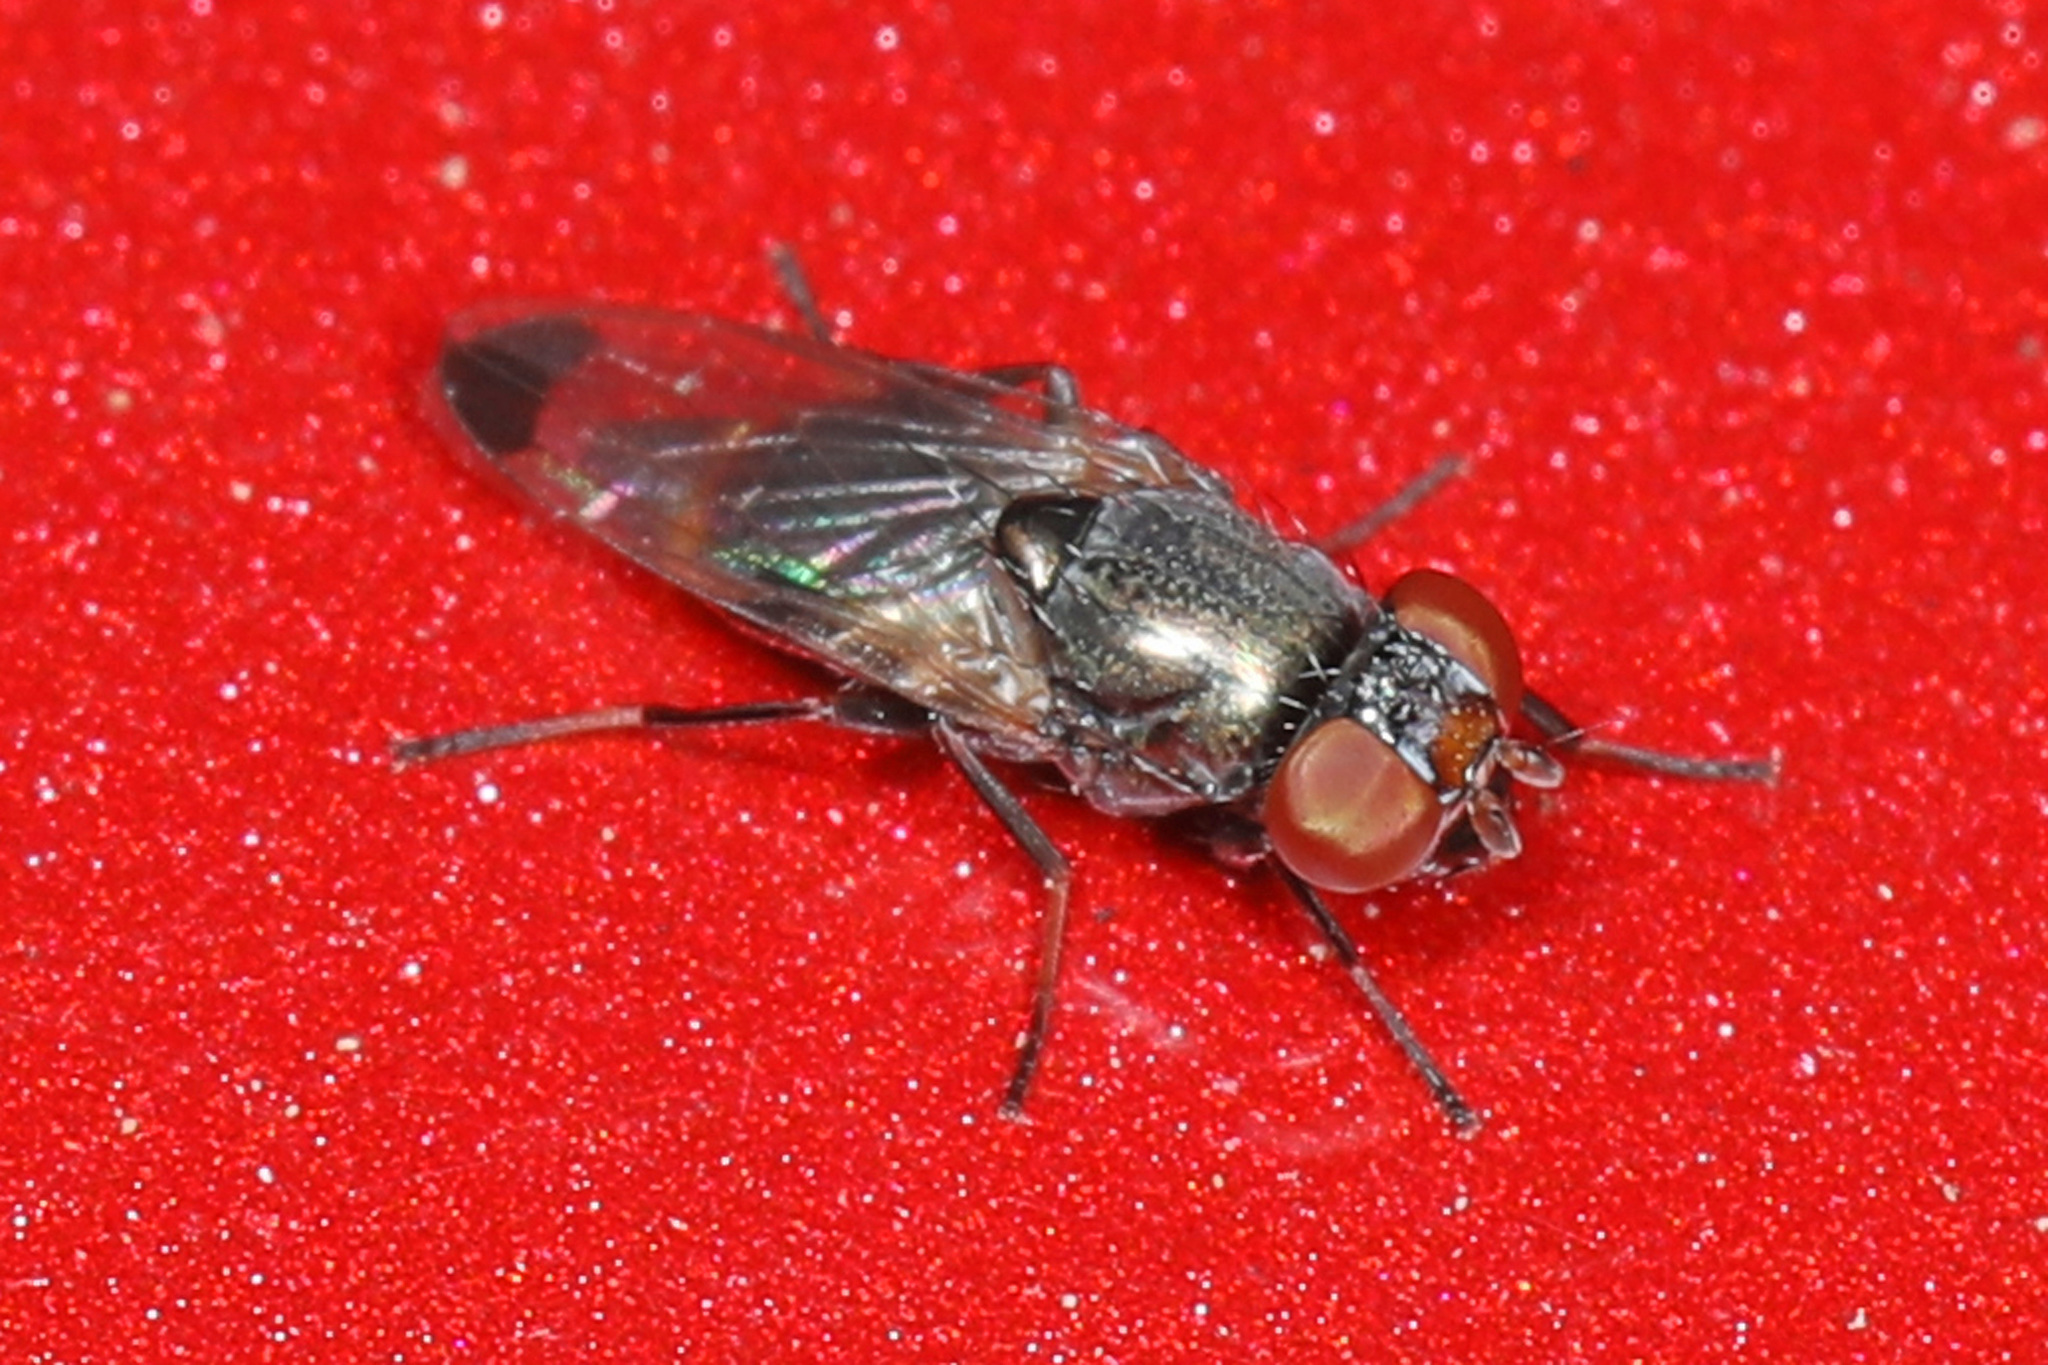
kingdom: Animalia
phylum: Arthropoda
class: Insecta
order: Diptera
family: Ulidiidae
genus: Euxesta
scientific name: Euxesta
